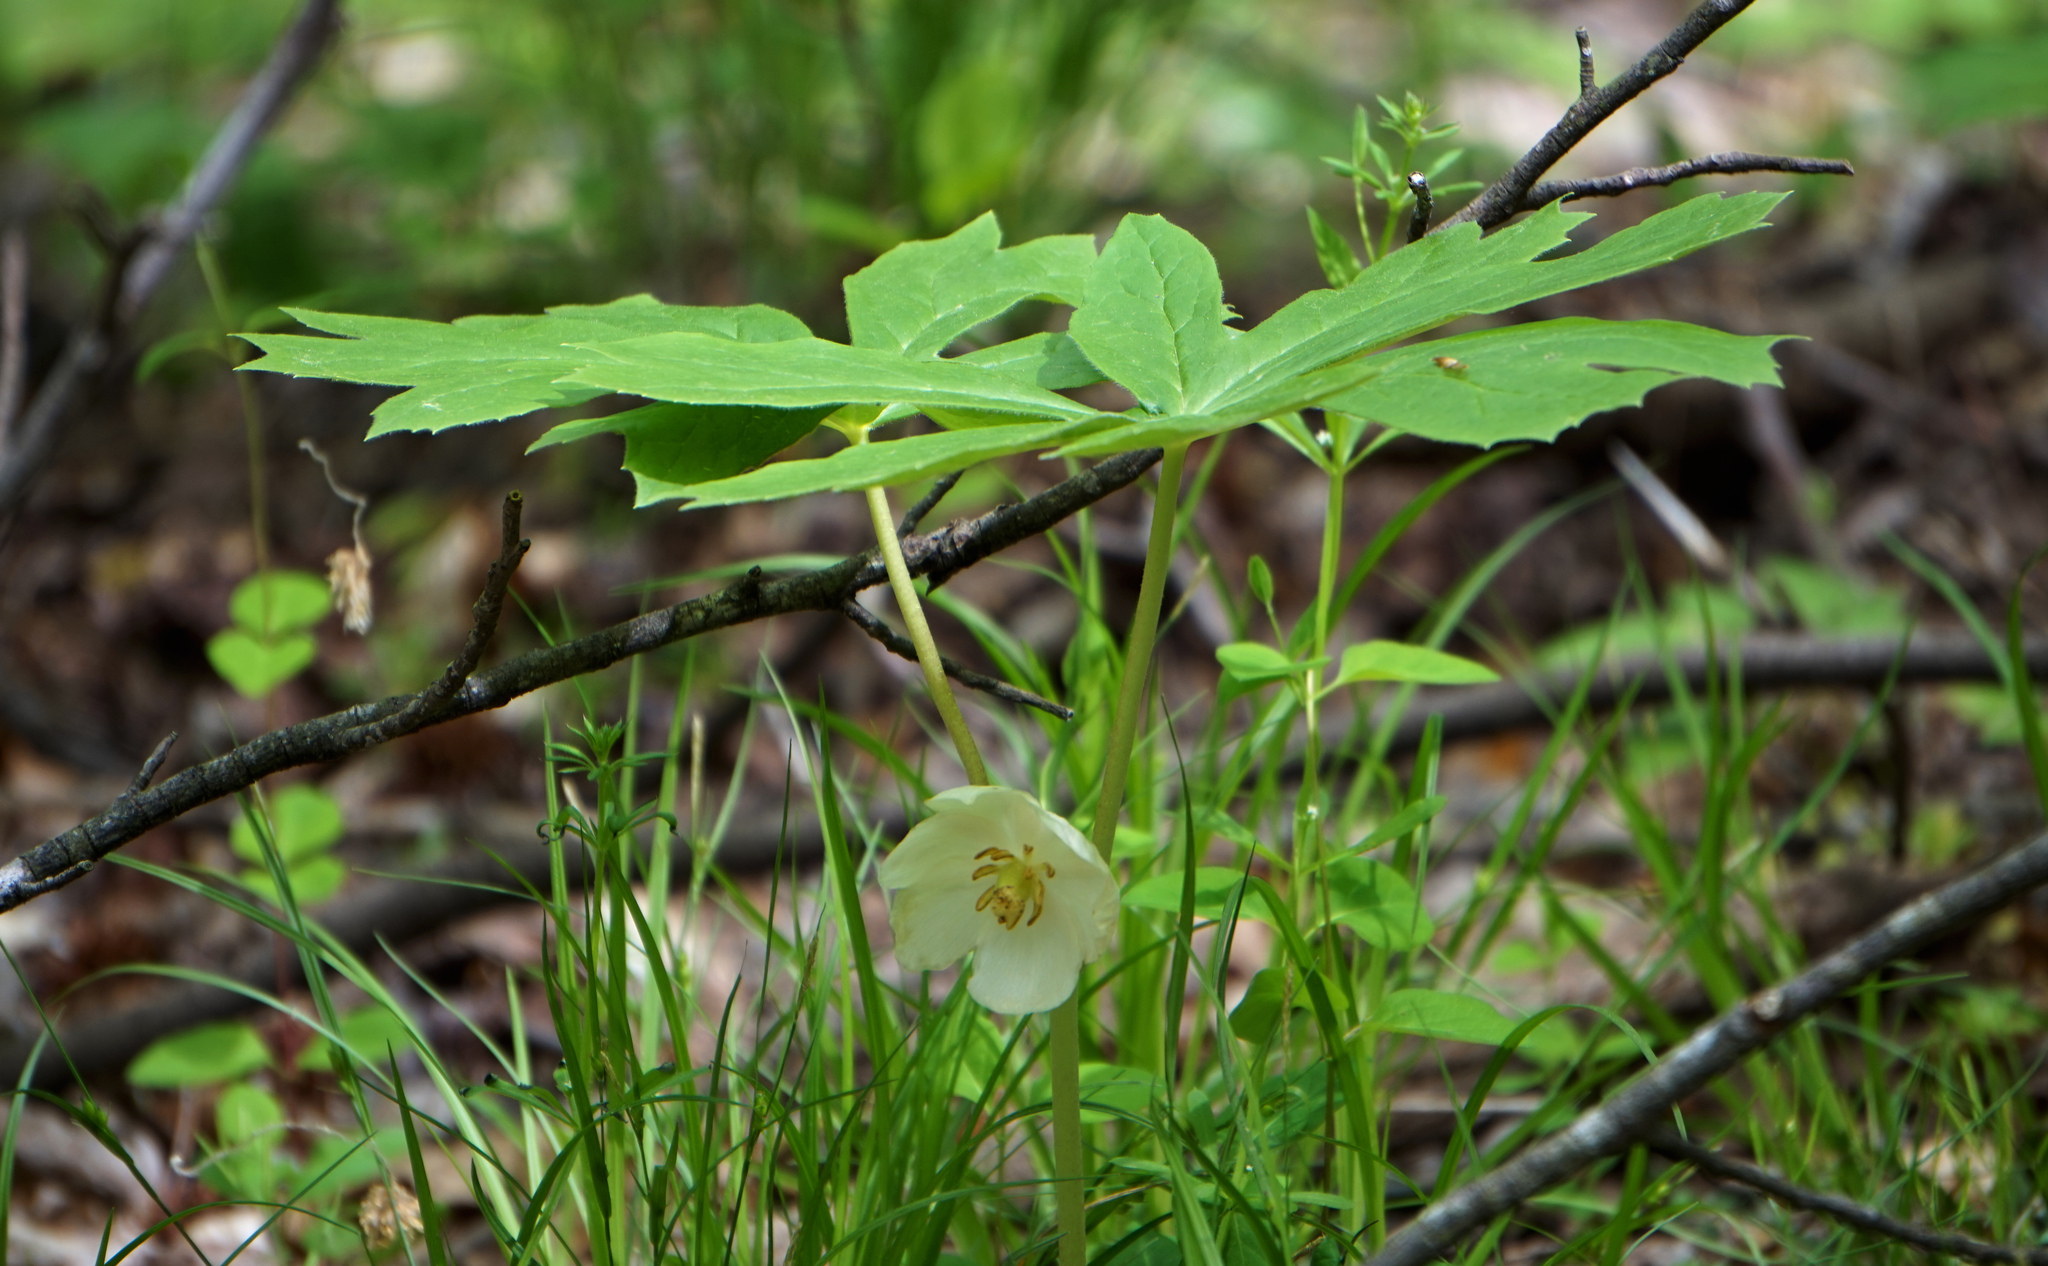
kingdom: Plantae
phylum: Tracheophyta
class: Magnoliopsida
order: Ranunculales
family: Berberidaceae
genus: Podophyllum
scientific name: Podophyllum peltatum
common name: Wild mandrake
